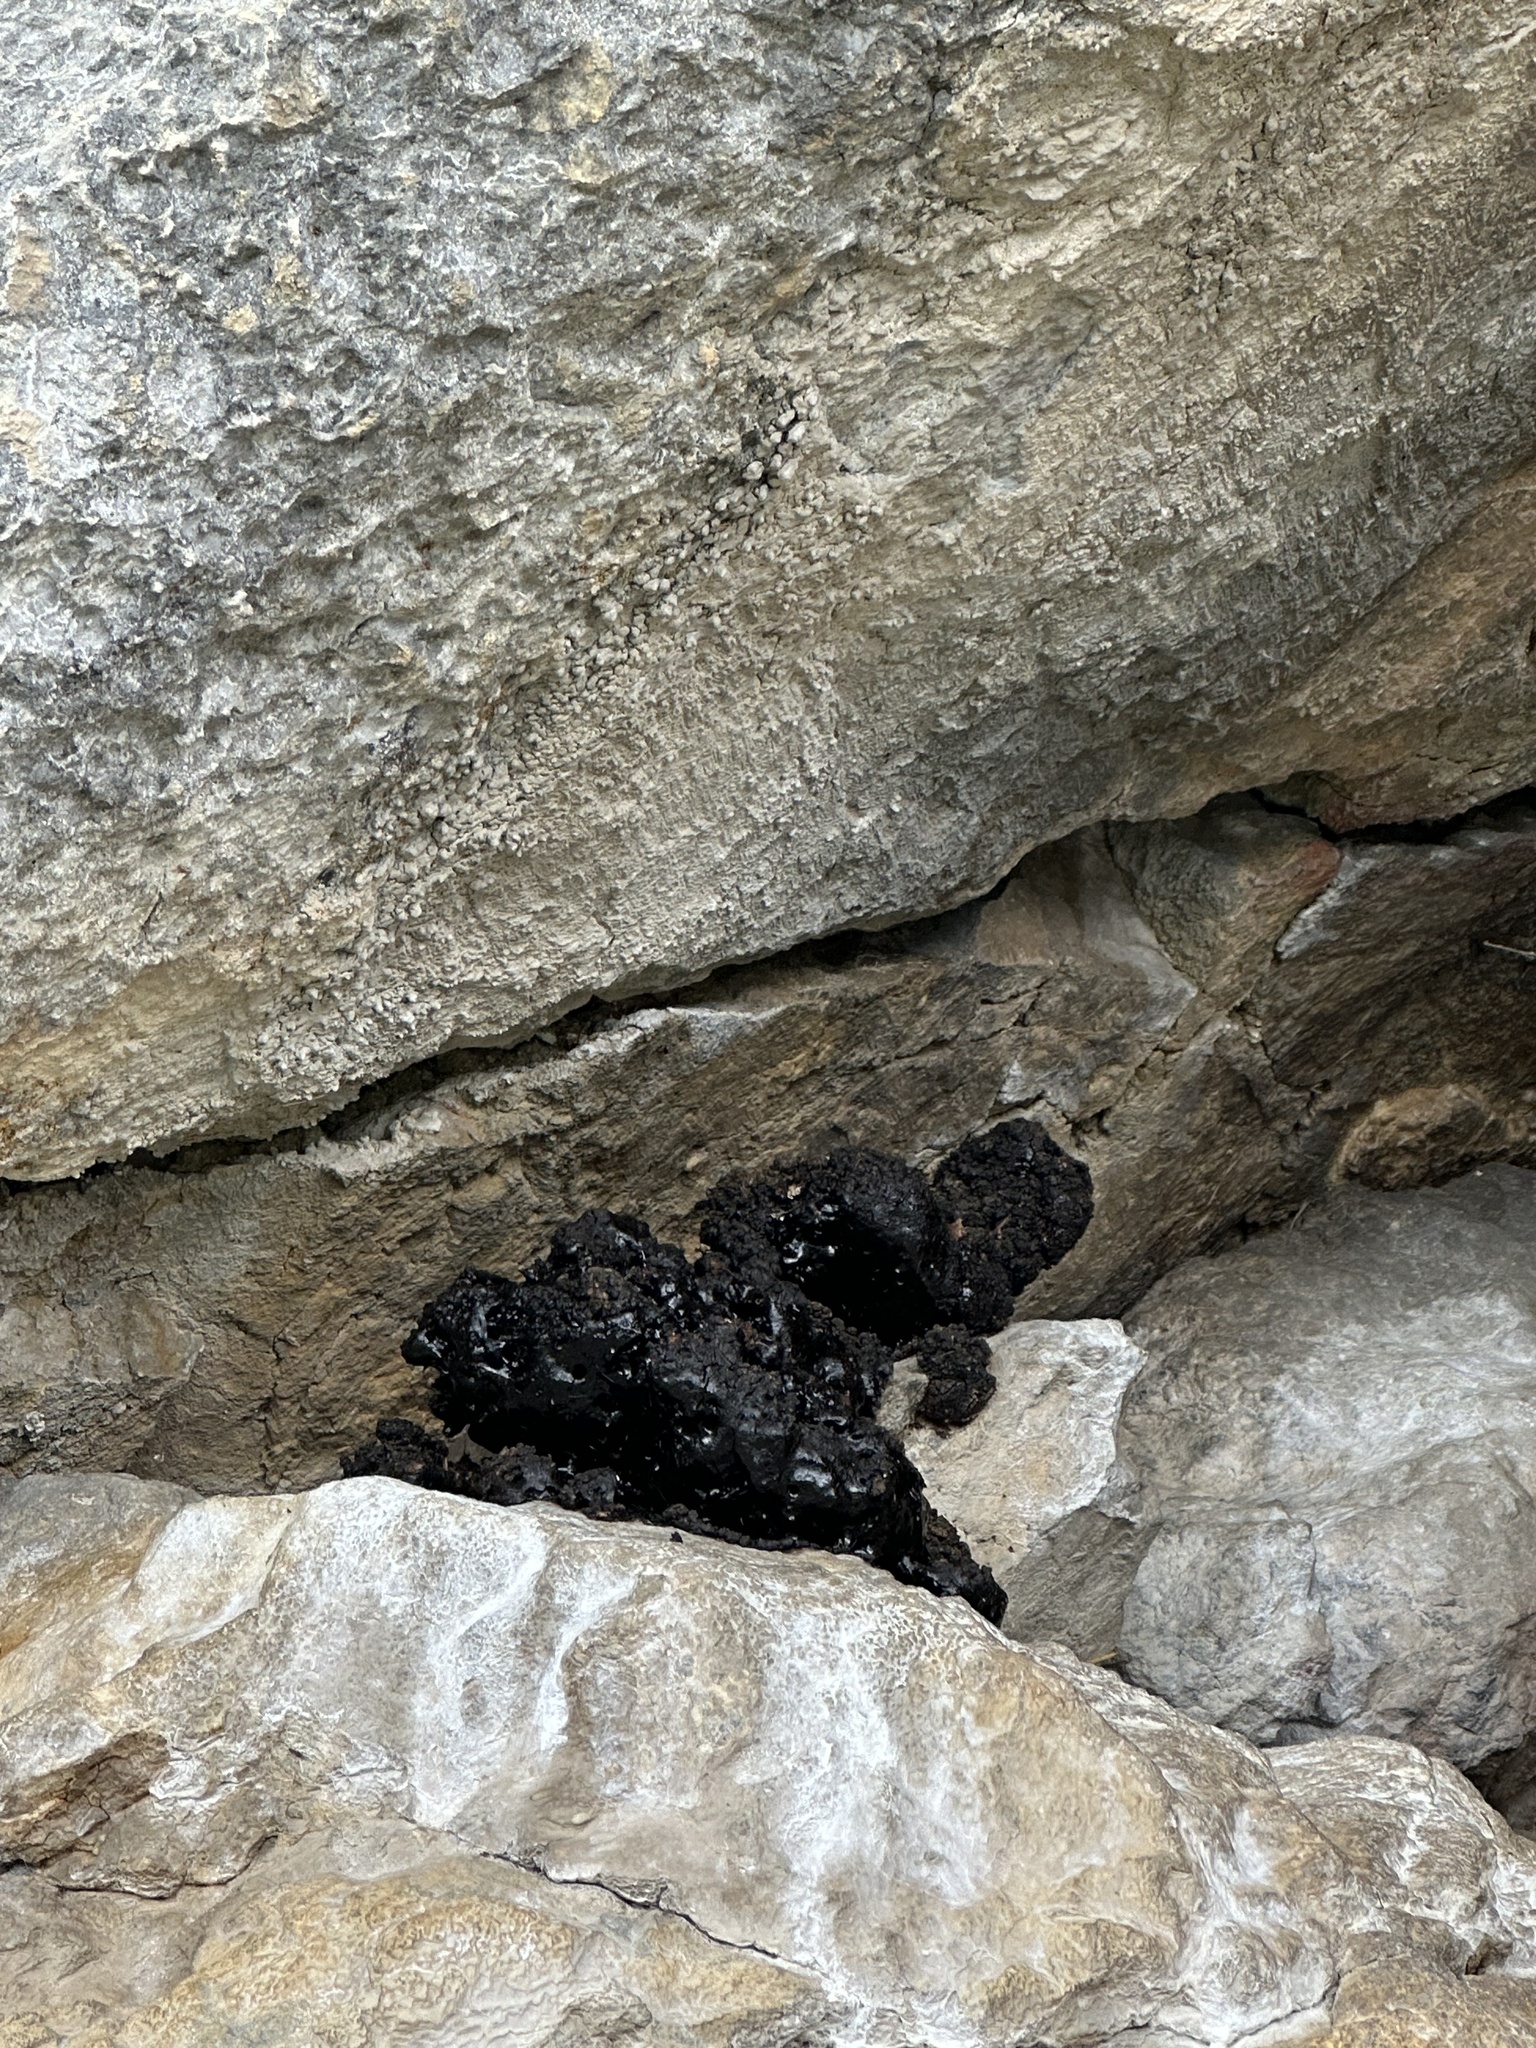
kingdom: Animalia
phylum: Chordata
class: Mammalia
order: Rodentia
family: Cricetidae
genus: Neotoma
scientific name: Neotoma cinerea
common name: Bushy-tailed woodrat
